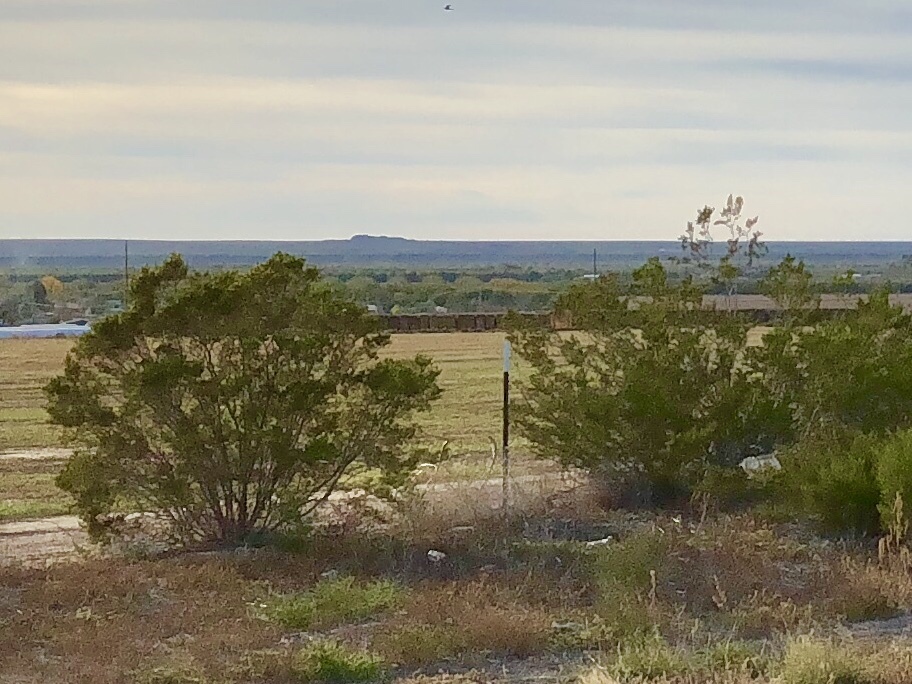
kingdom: Plantae
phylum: Tracheophyta
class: Magnoliopsida
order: Zygophyllales
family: Zygophyllaceae
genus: Larrea
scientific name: Larrea tridentata
